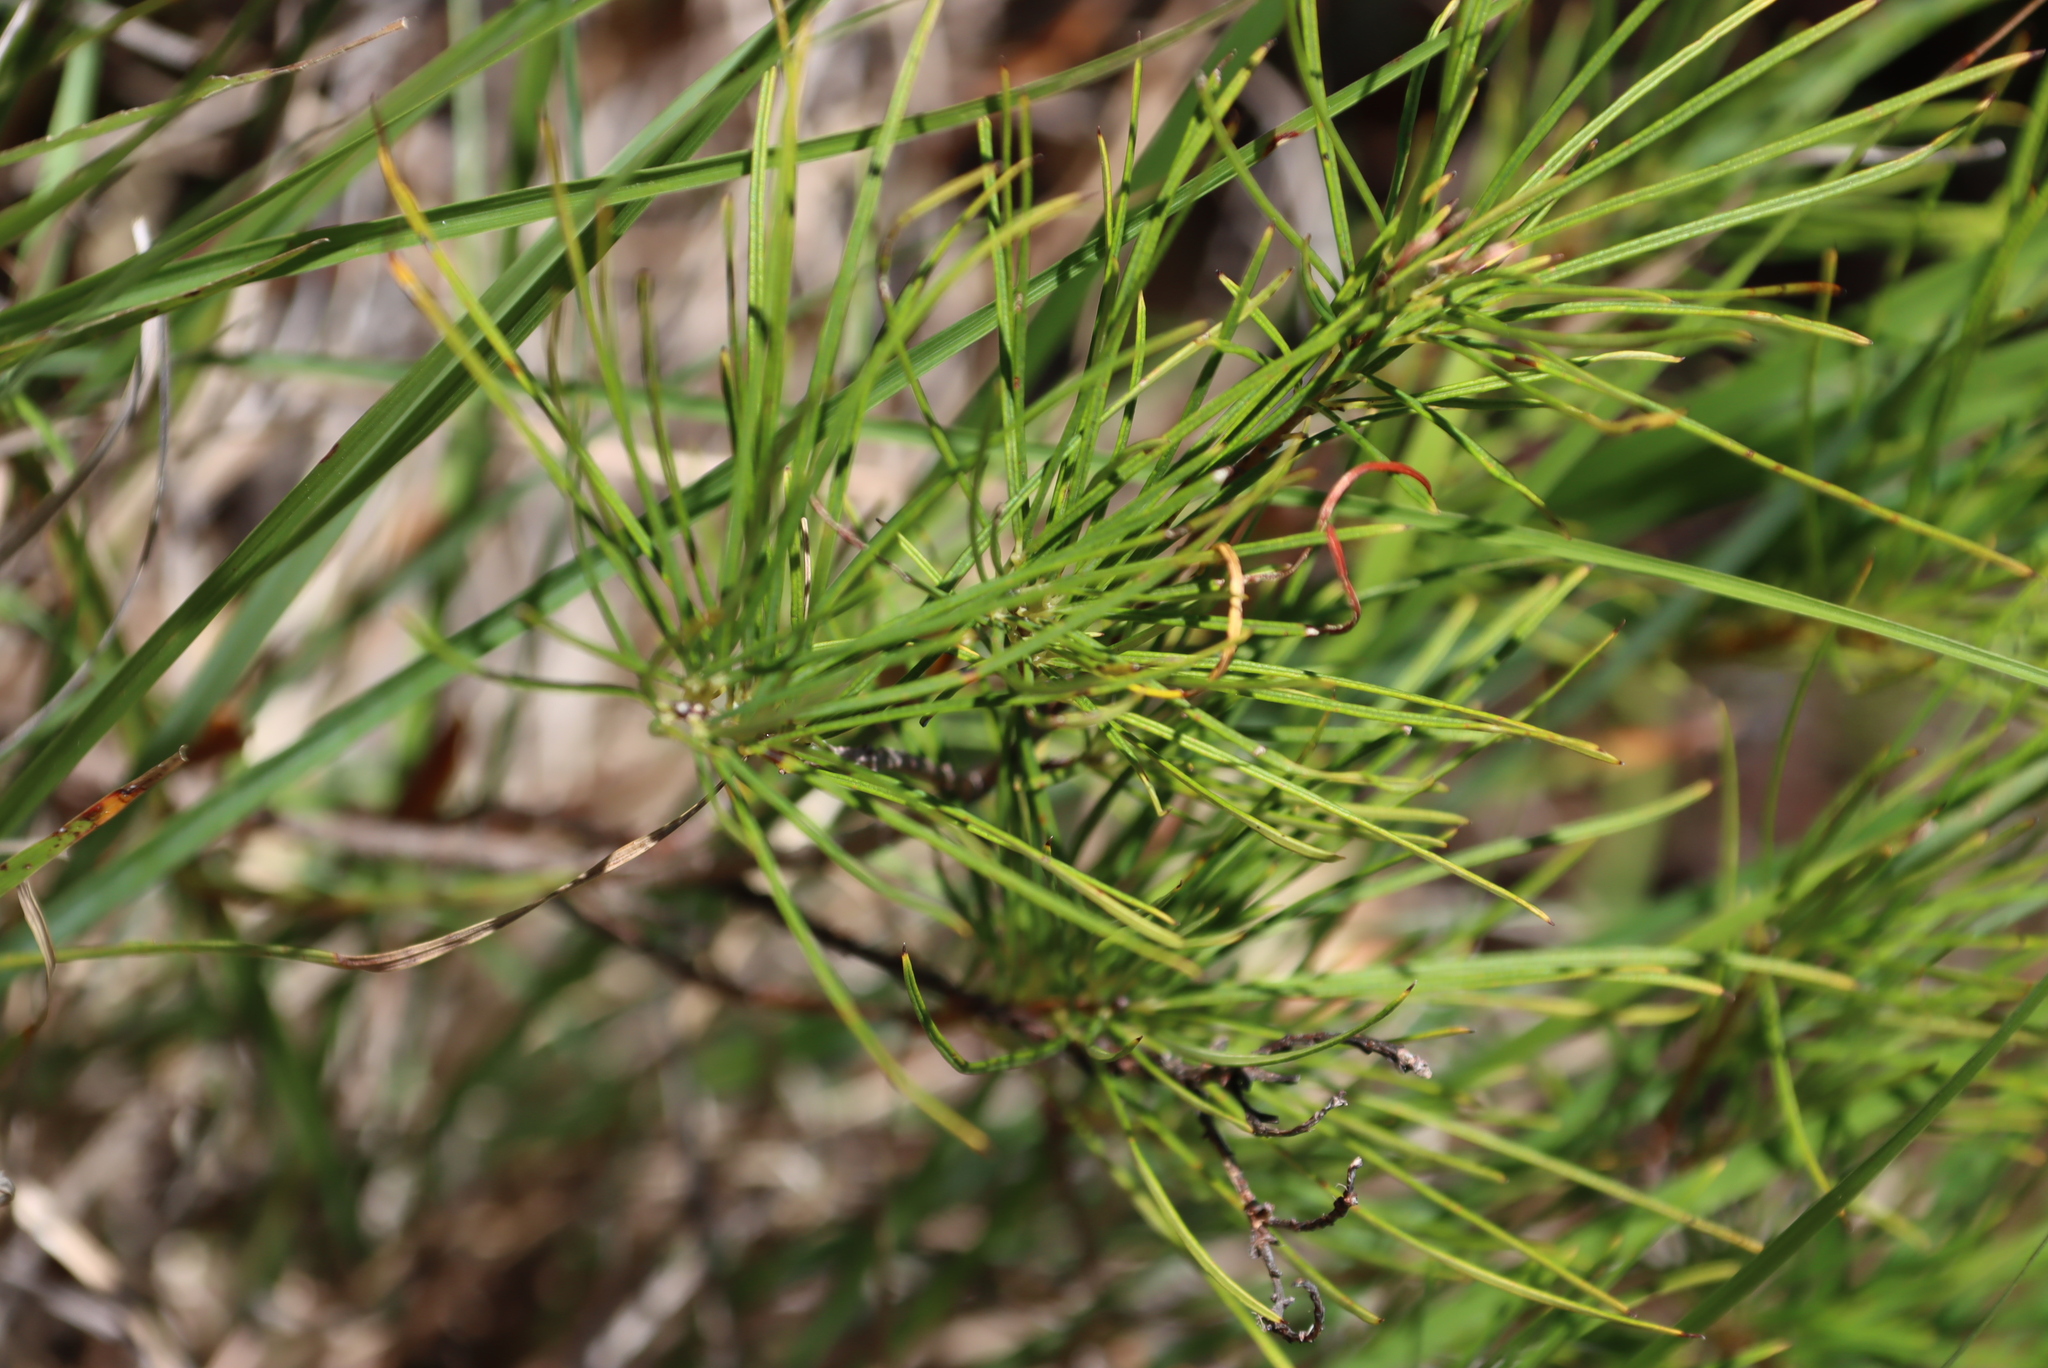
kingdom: Plantae
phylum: Tracheophyta
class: Magnoliopsida
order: Sapindales
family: Anacardiaceae
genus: Searsia
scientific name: Searsia rosmarinifolia
